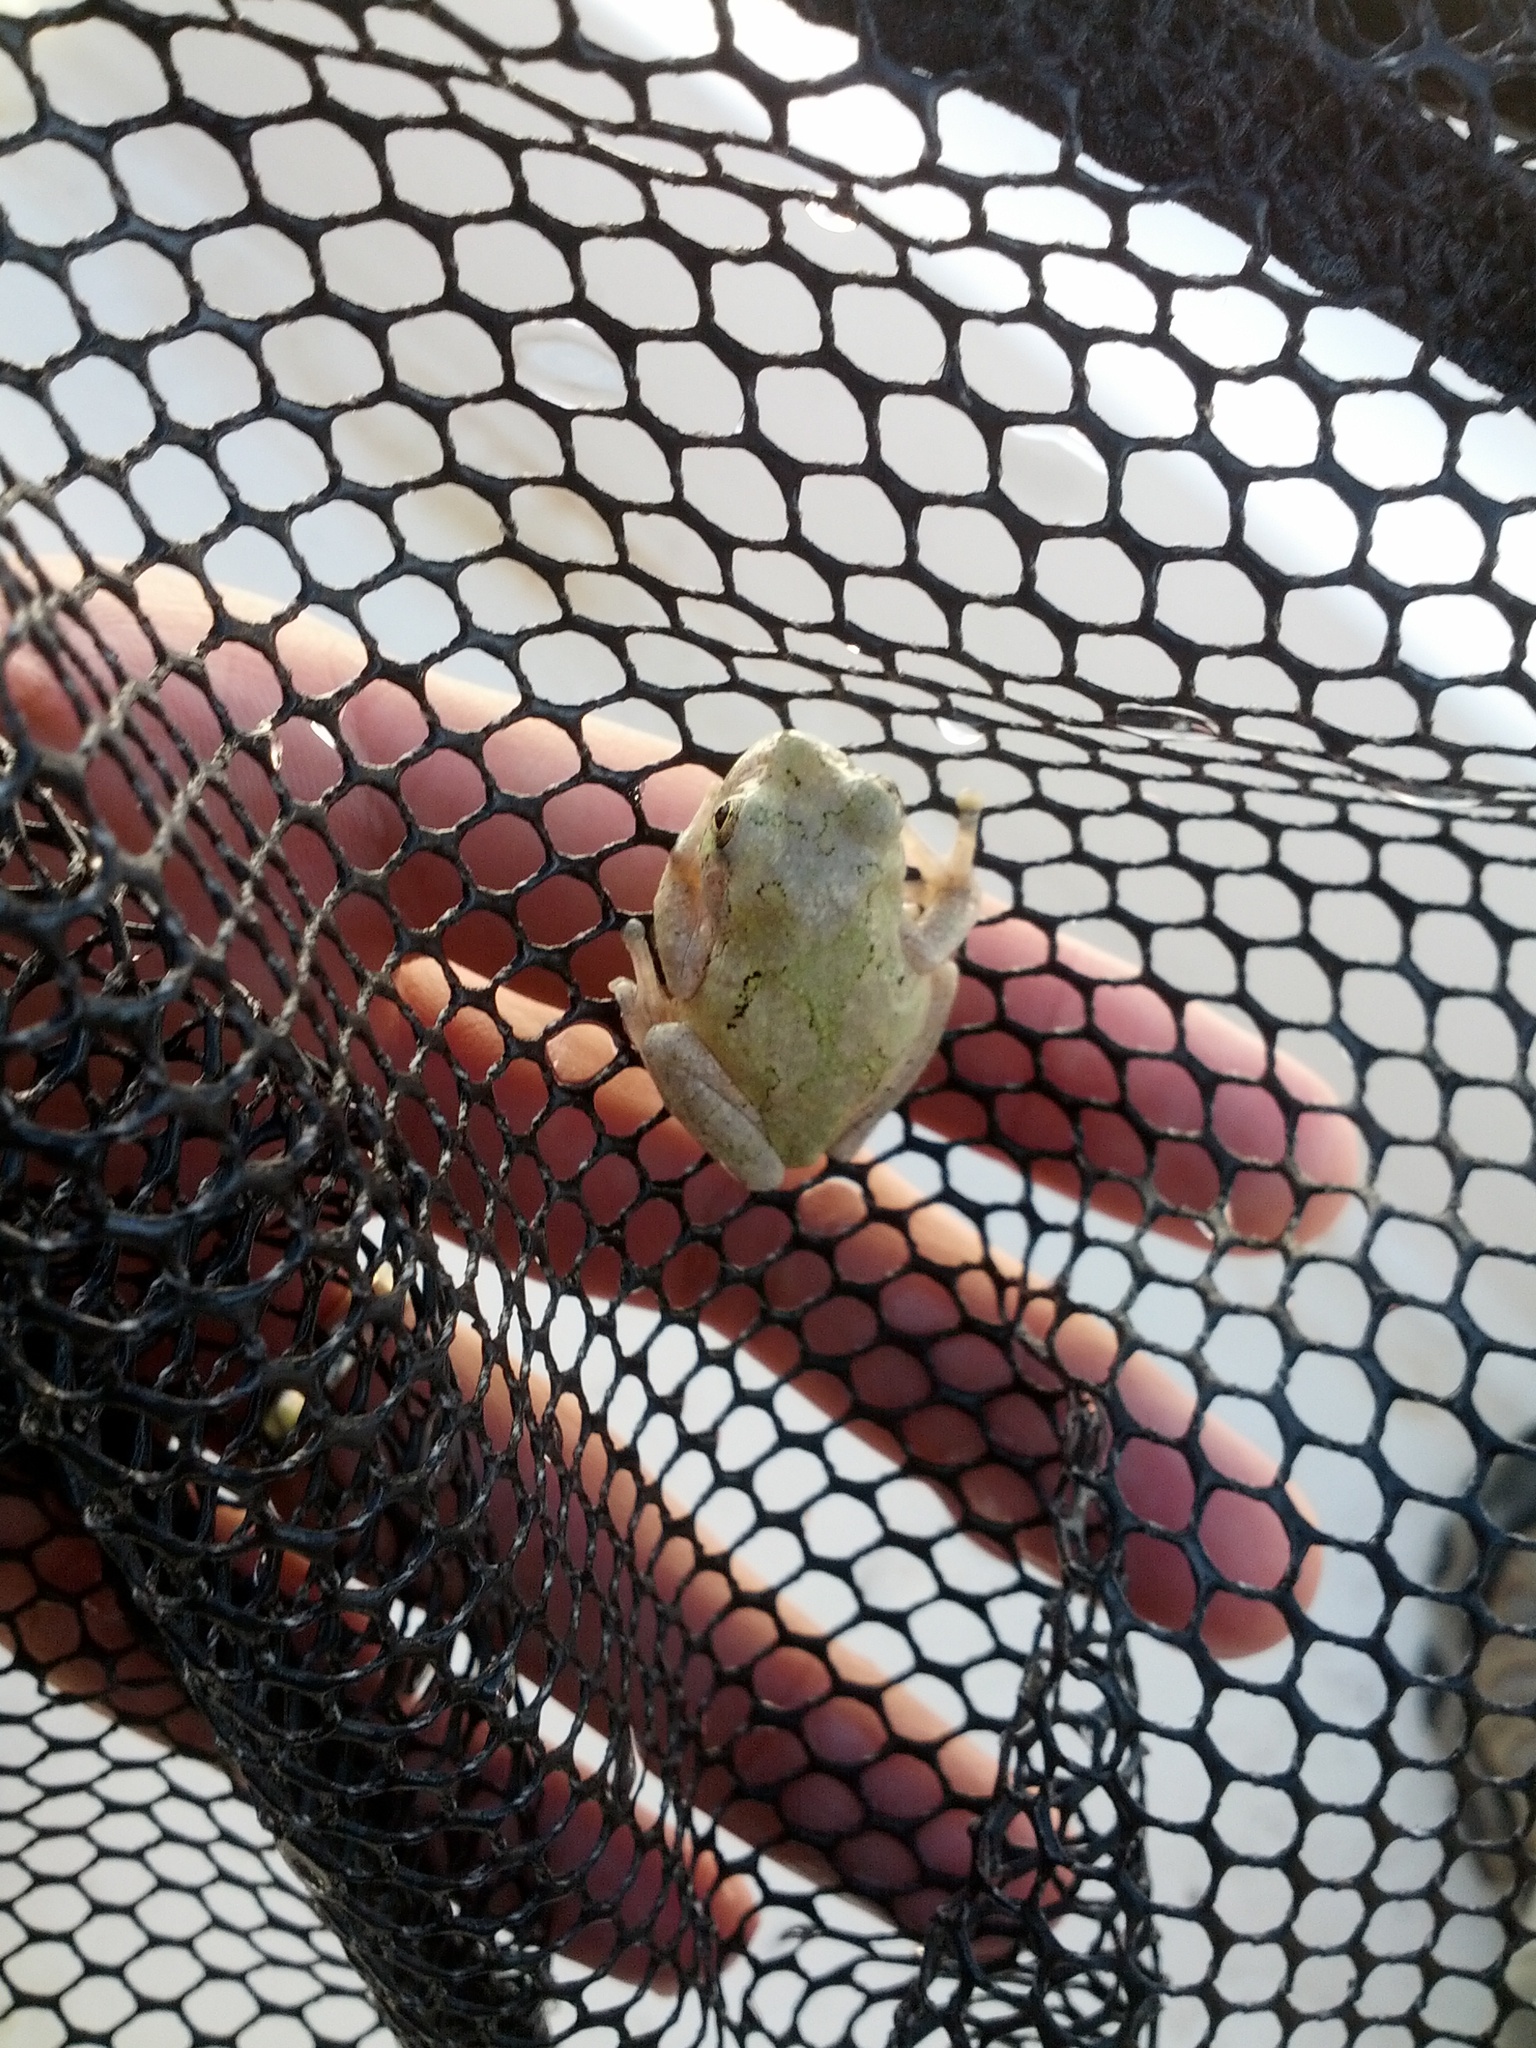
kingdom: Animalia
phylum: Chordata
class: Amphibia
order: Anura
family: Hylidae
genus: Dryophytes
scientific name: Dryophytes chrysoscelis
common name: Cope's gray treefrog
